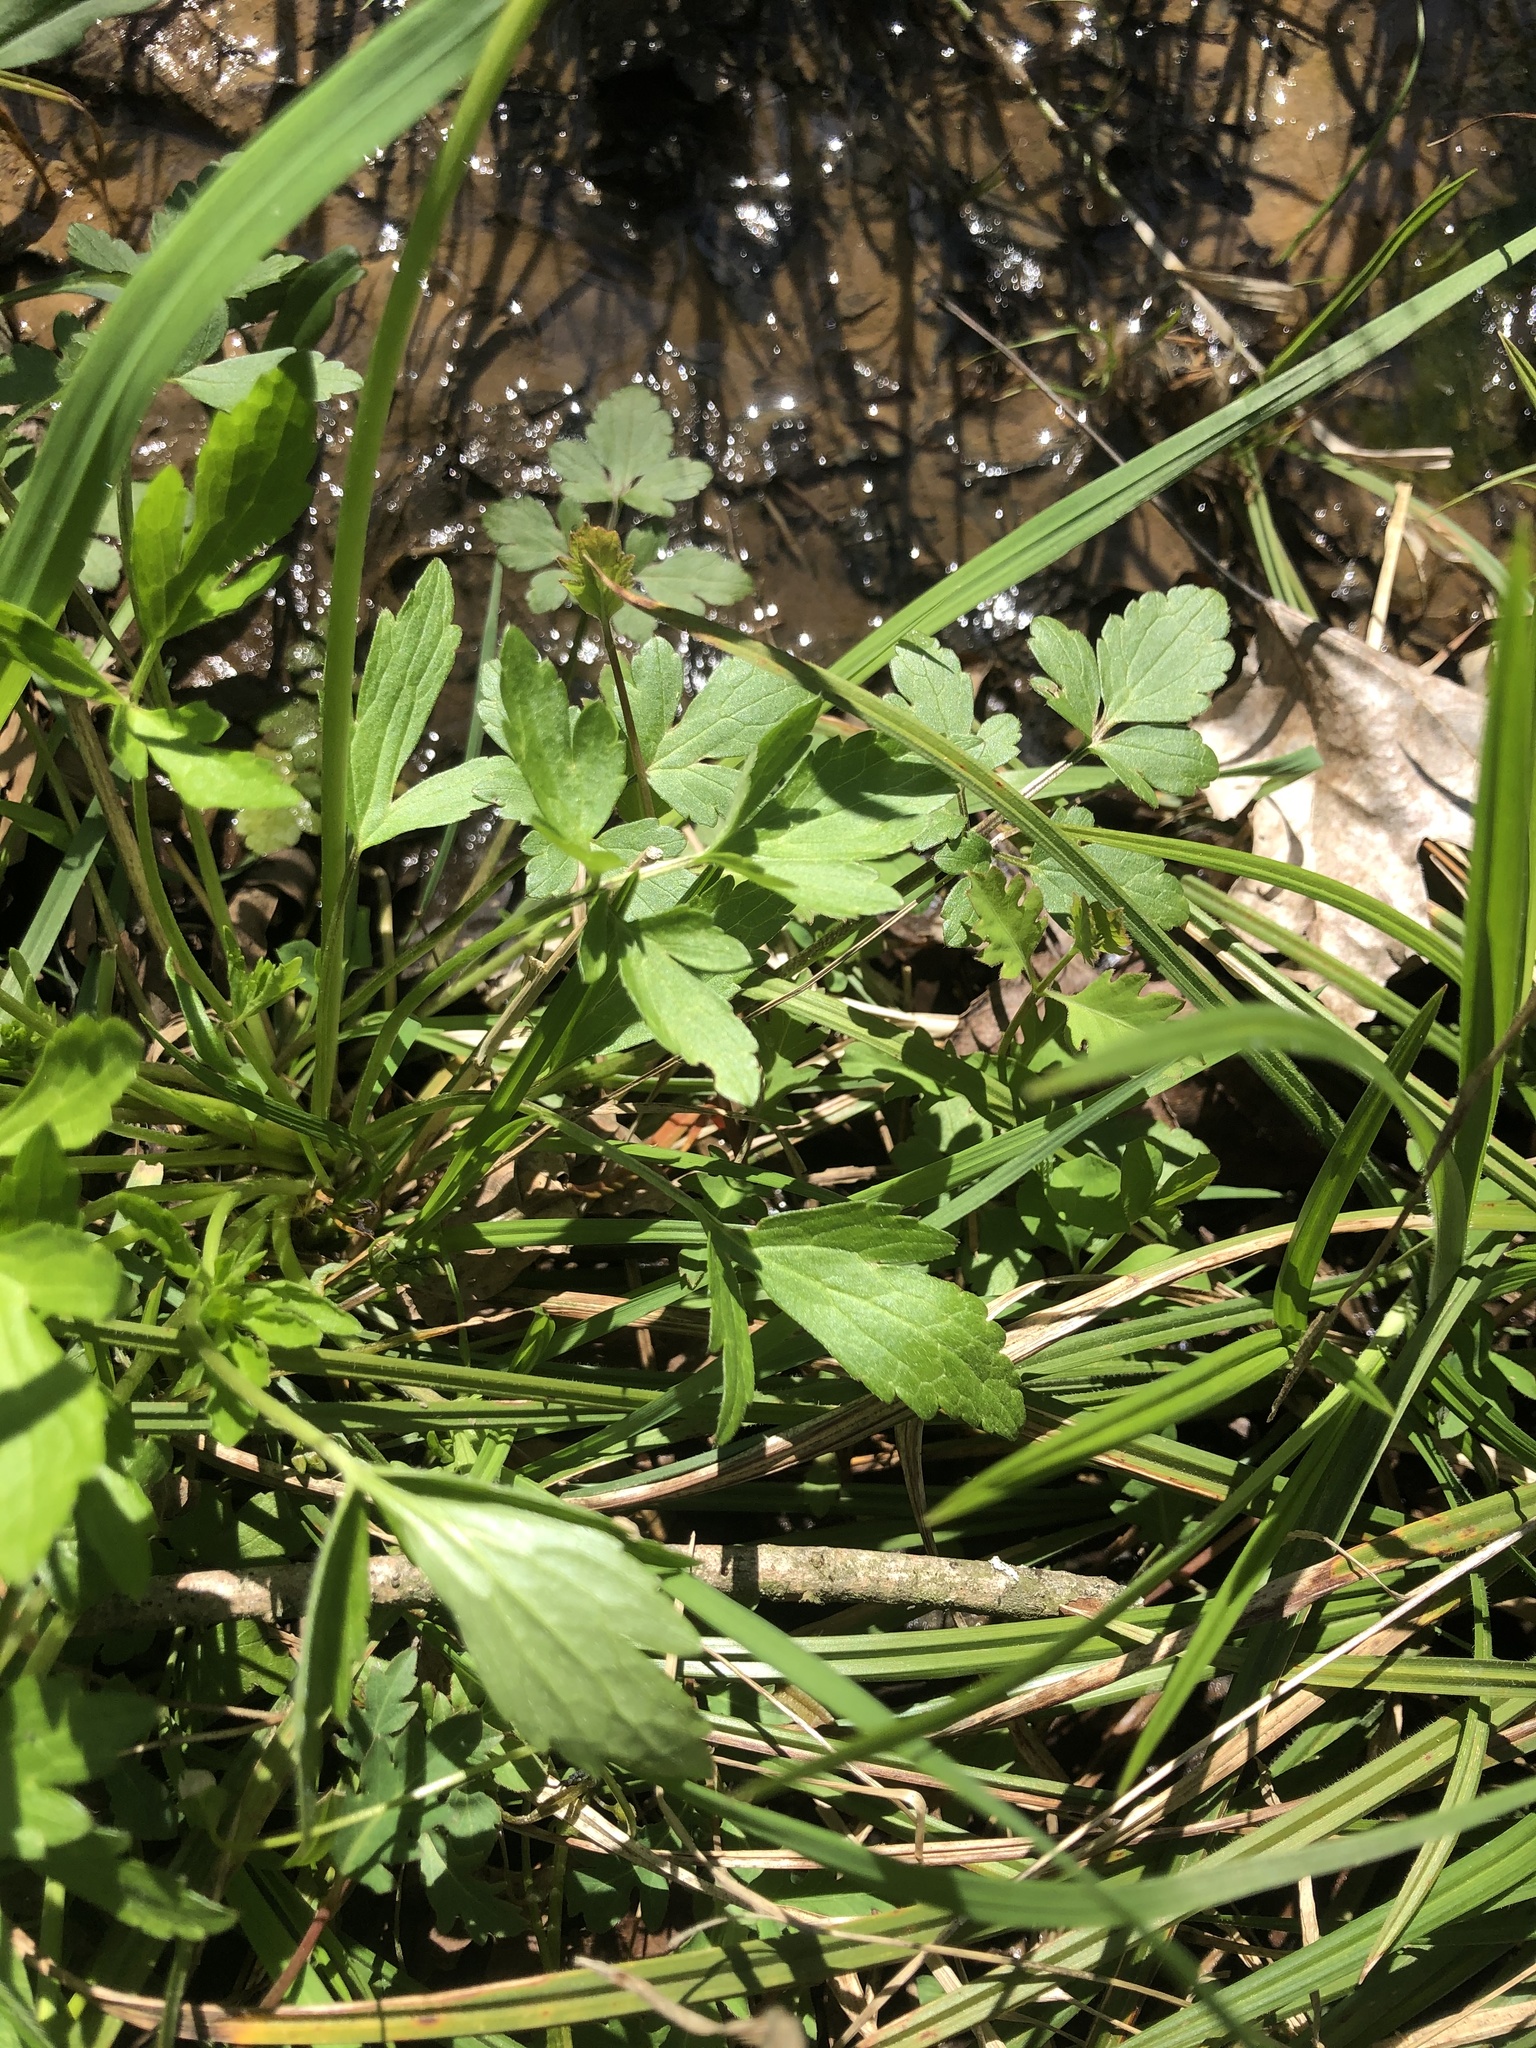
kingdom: Plantae
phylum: Tracheophyta
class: Magnoliopsida
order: Ranunculales
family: Ranunculaceae
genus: Ranunculus
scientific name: Ranunculus hispidus
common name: Bristly buttercup
